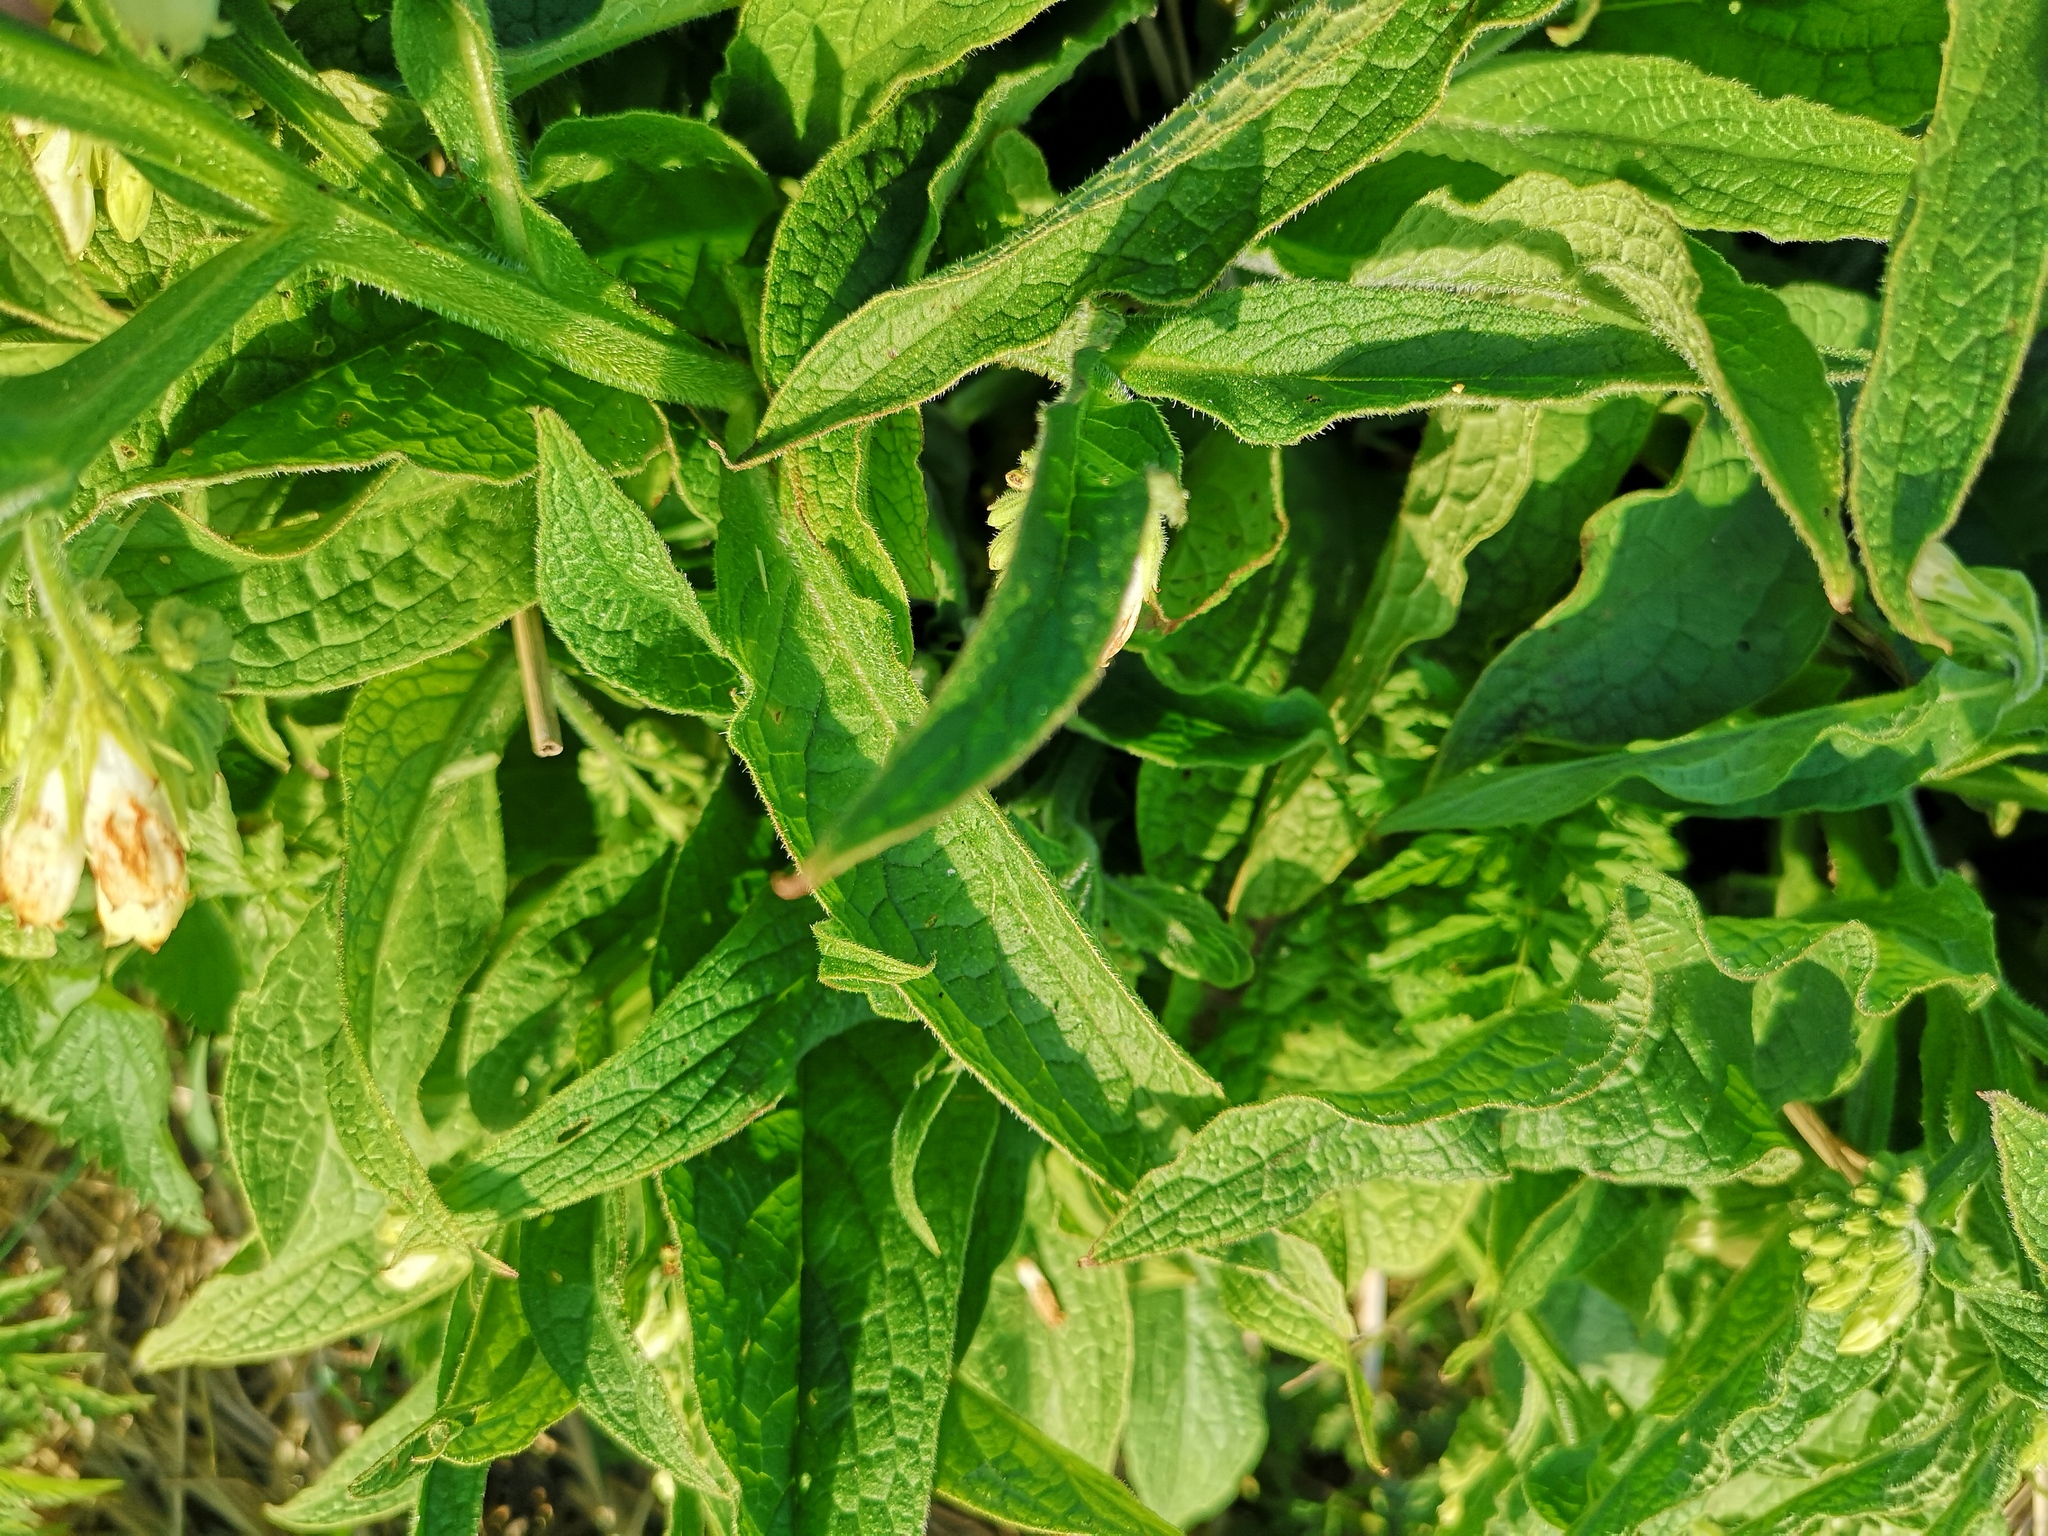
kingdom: Plantae
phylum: Tracheophyta
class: Magnoliopsida
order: Boraginales
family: Boraginaceae
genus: Symphytum
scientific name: Symphytum officinale
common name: Common comfrey
